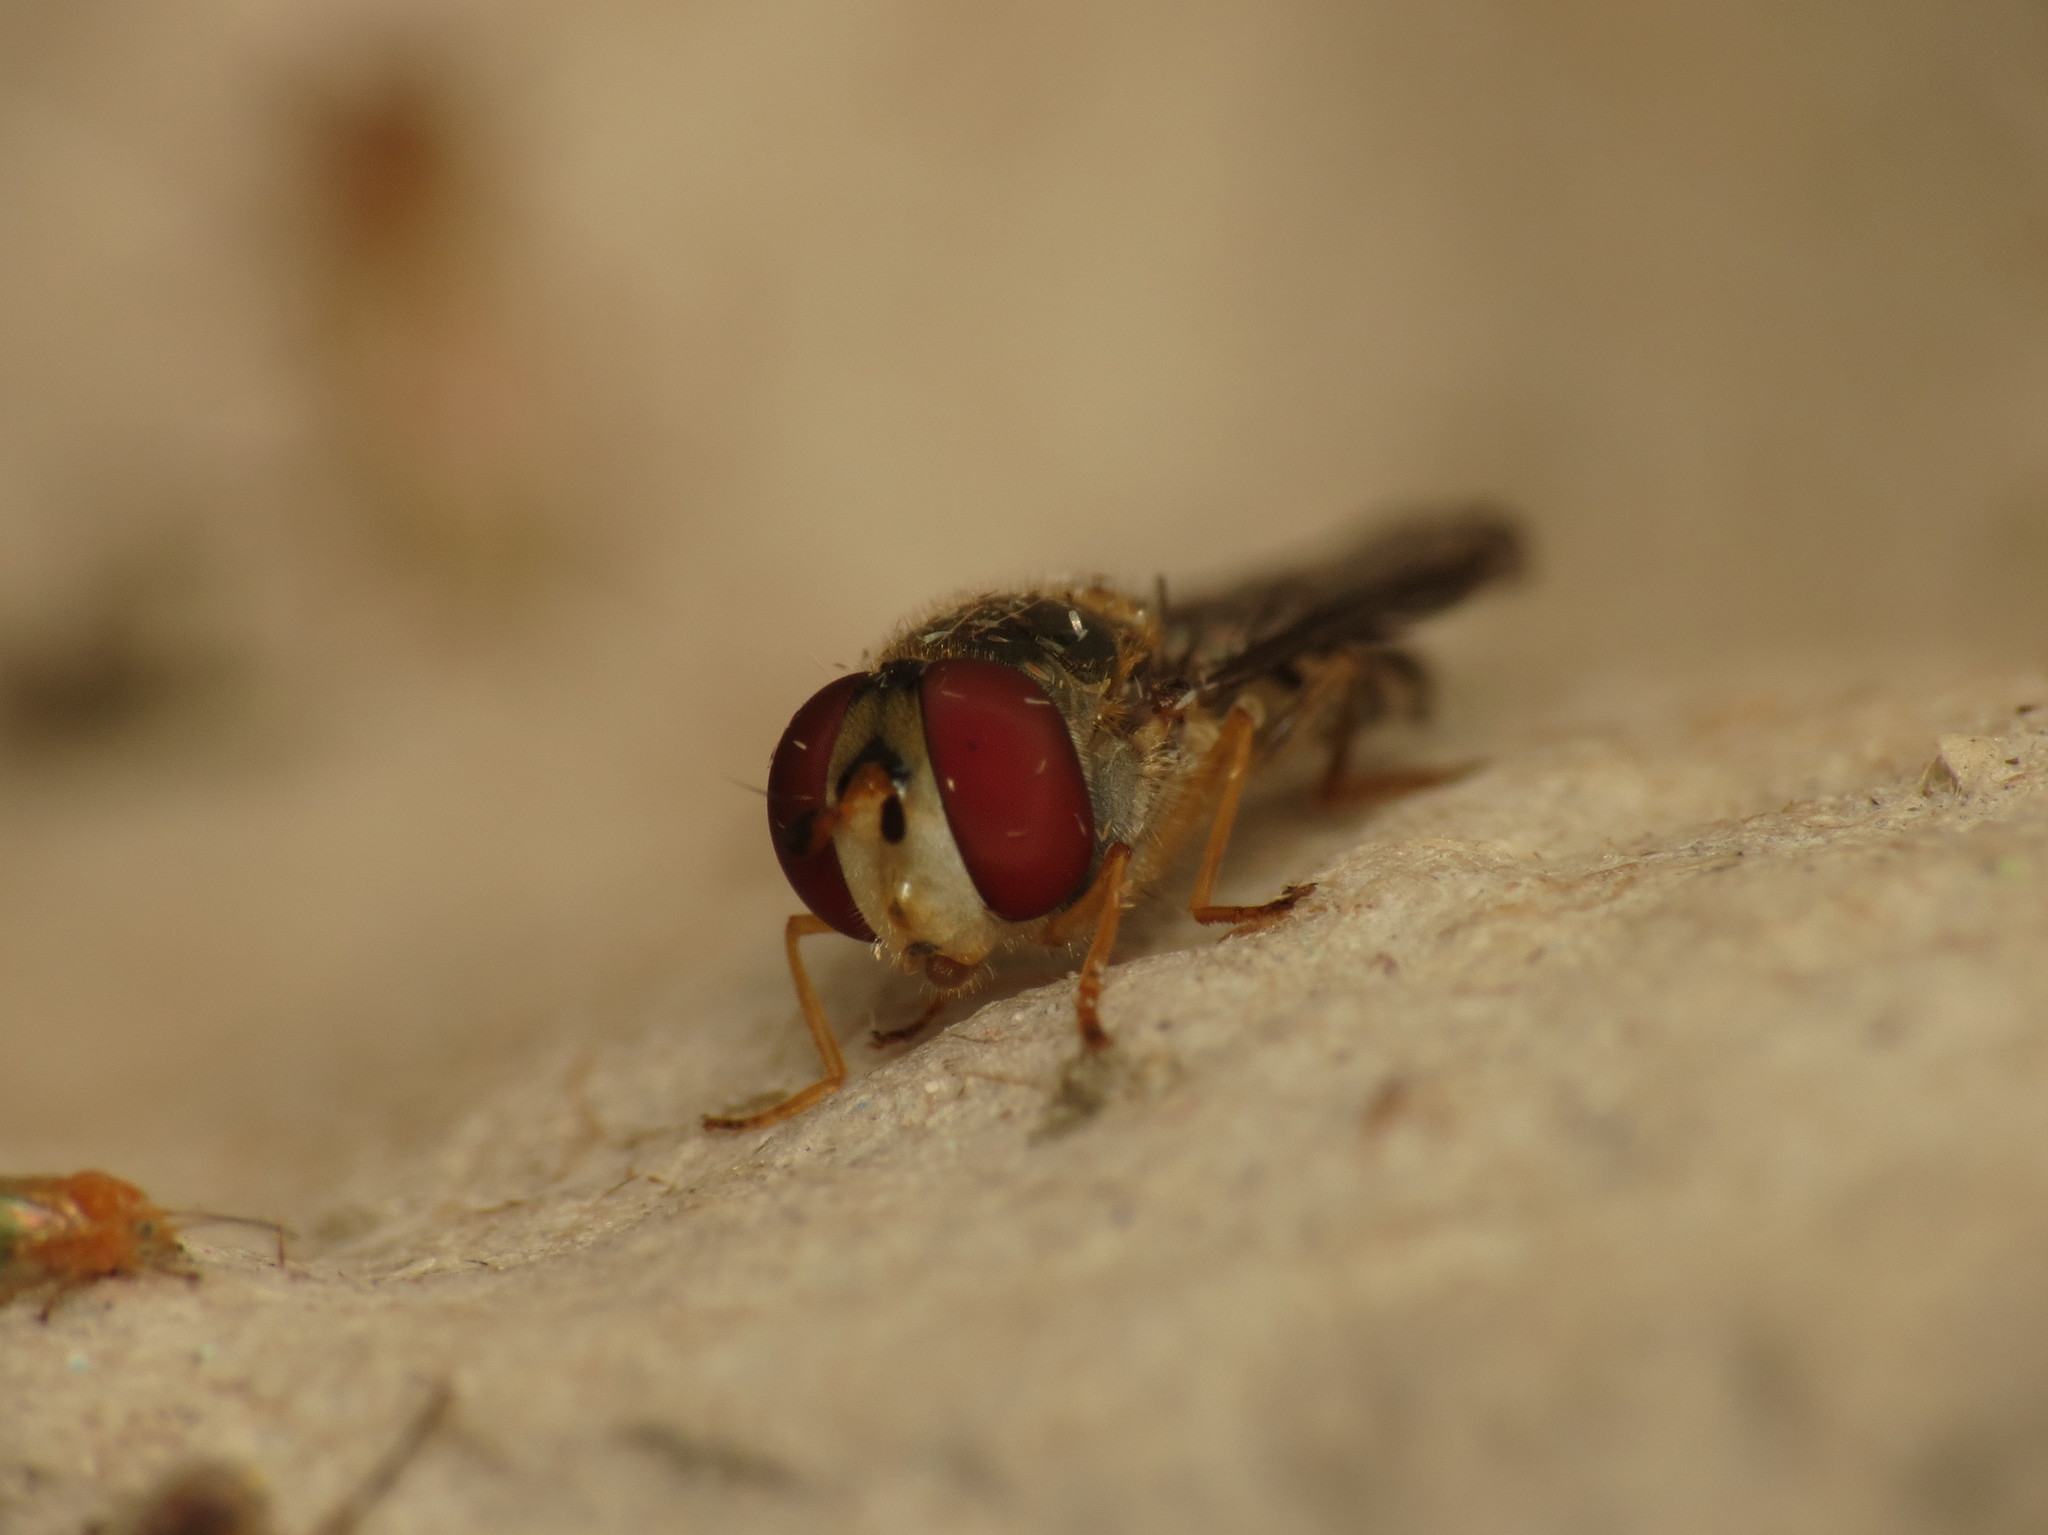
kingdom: Animalia
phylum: Arthropoda
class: Insecta
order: Diptera
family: Syrphidae
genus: Meliscaeva
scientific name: Meliscaeva auricollis
